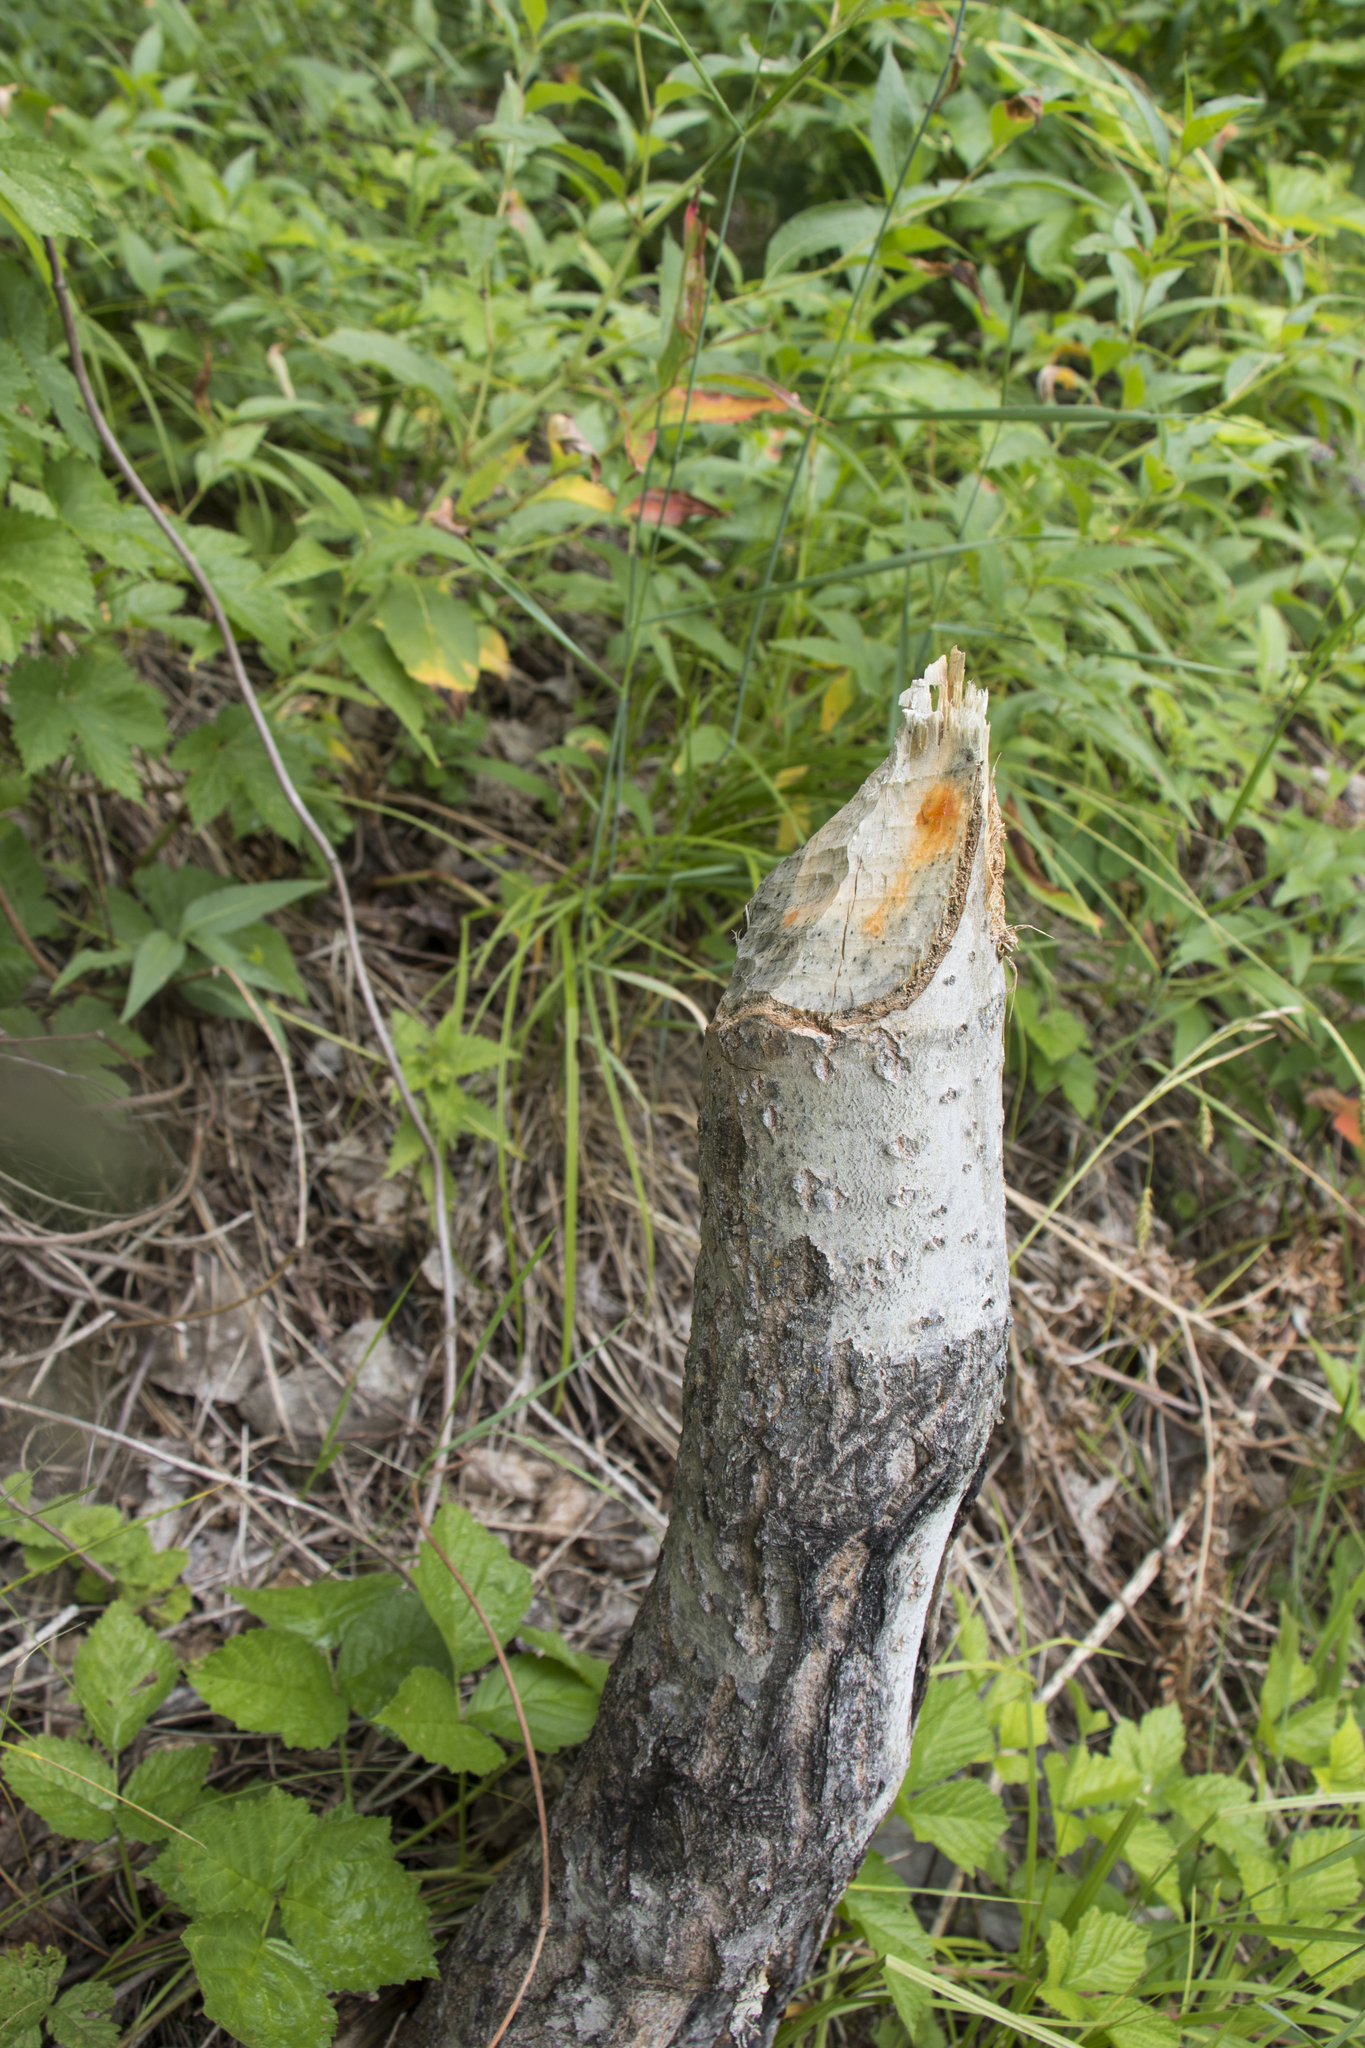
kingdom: Animalia
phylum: Chordata
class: Mammalia
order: Rodentia
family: Castoridae
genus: Castor
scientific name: Castor fiber
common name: Eurasian beaver
